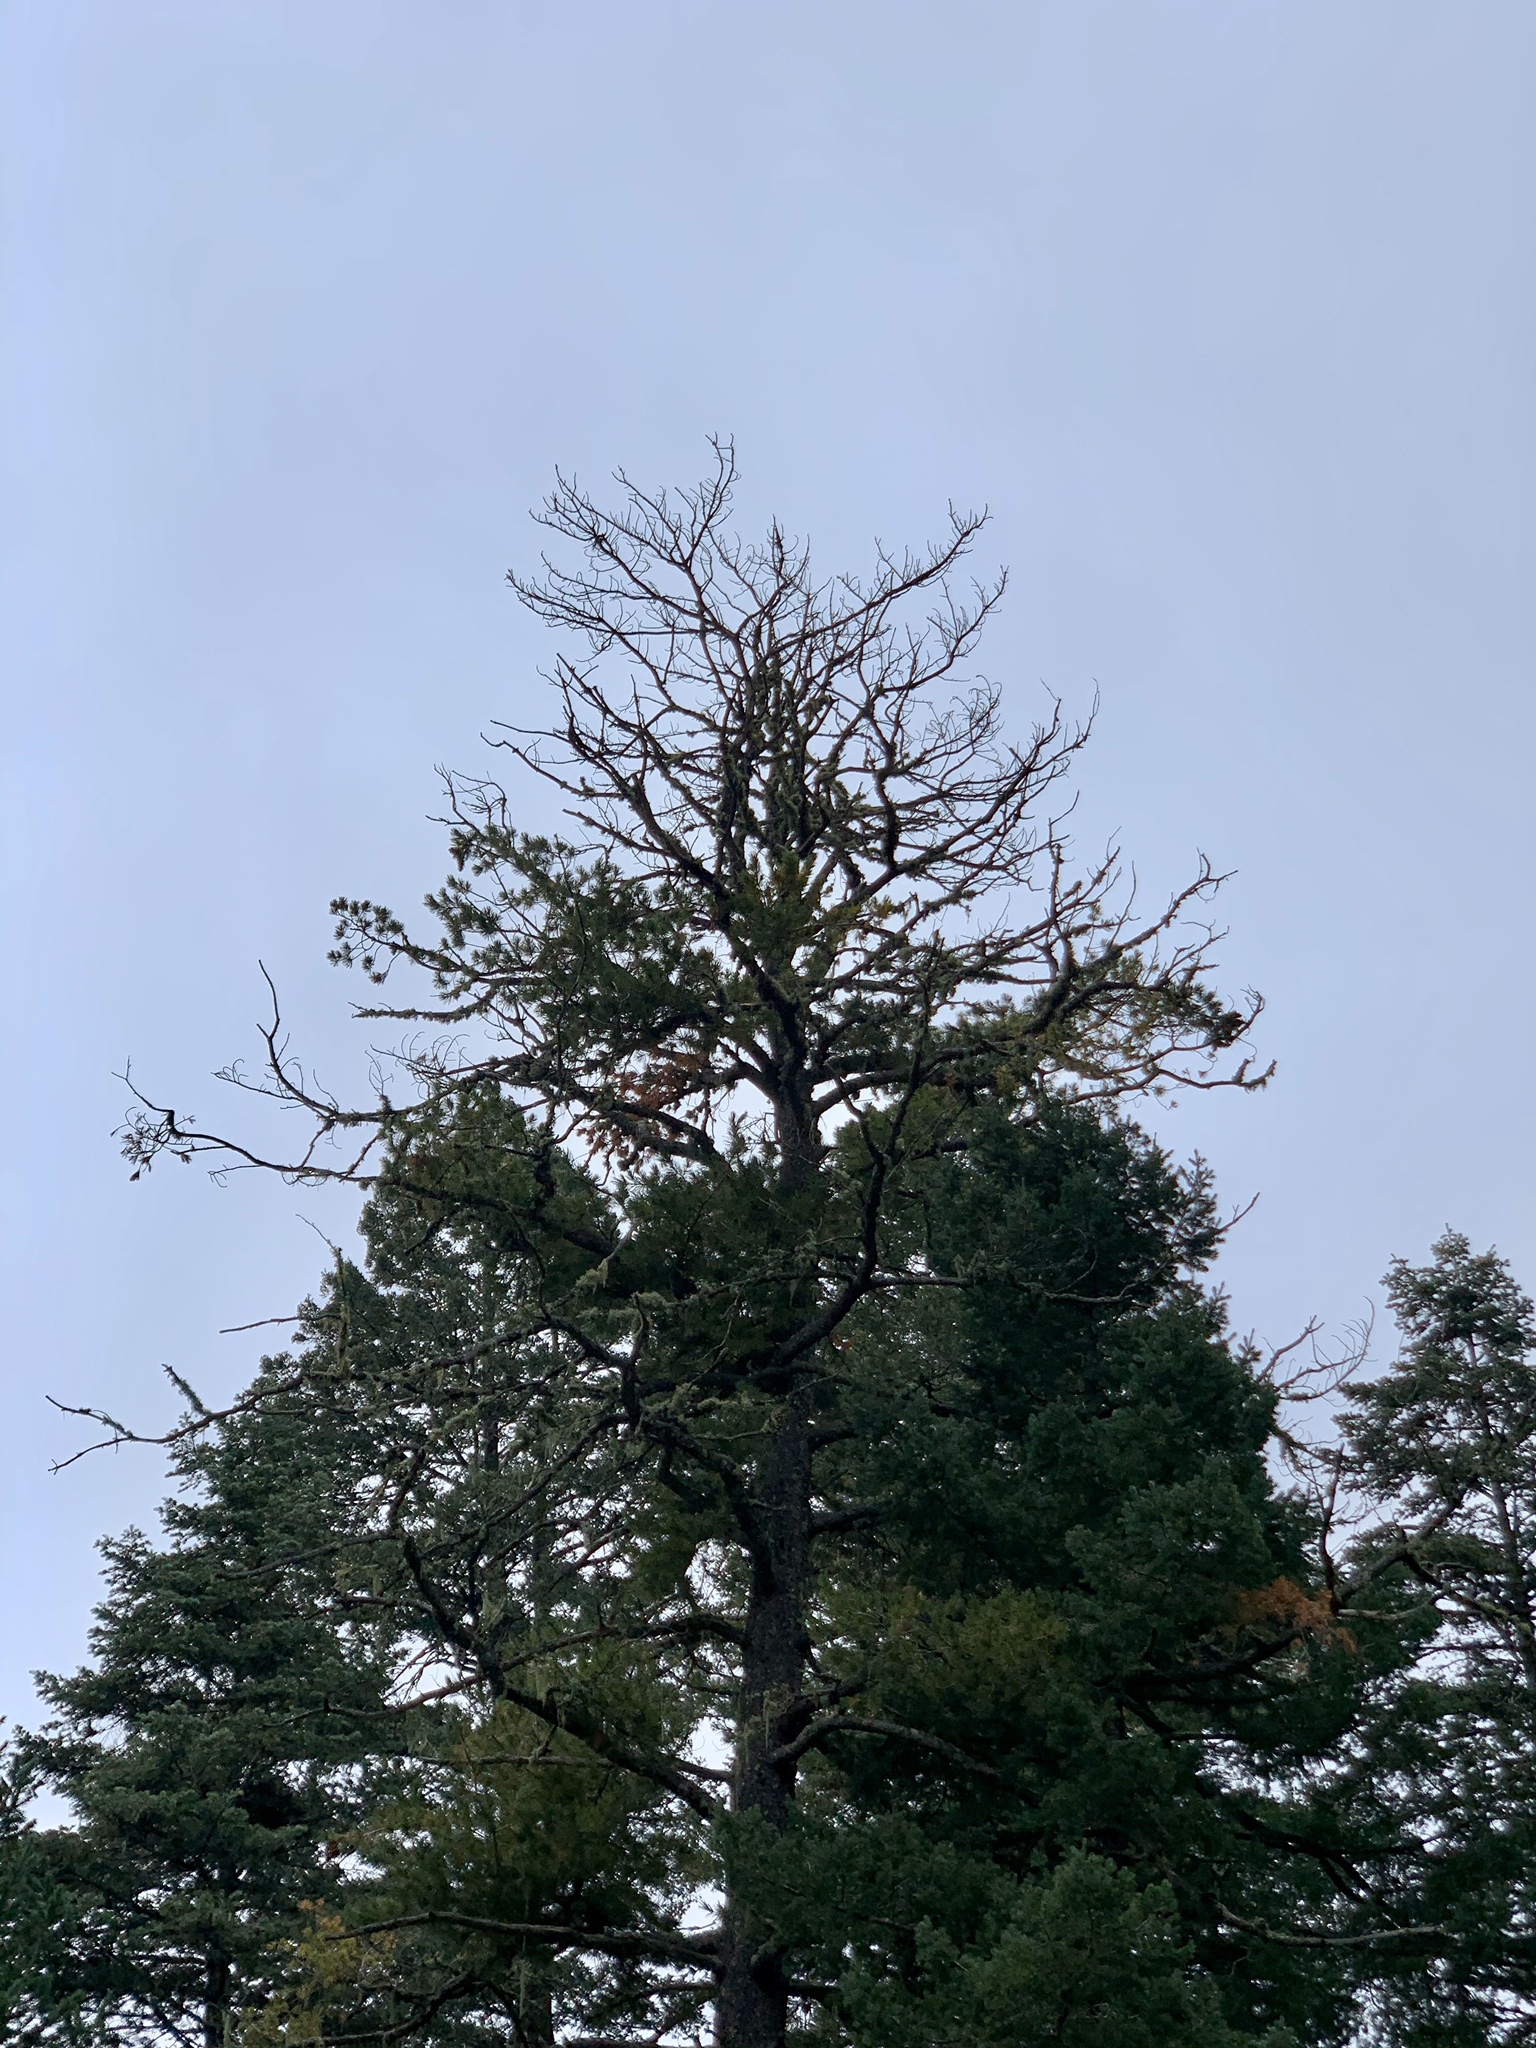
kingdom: Plantae
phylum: Tracheophyta
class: Pinopsida
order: Pinales
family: Pinaceae
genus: Pinus
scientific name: Pinus strobiformis
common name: Southwestern white pine
